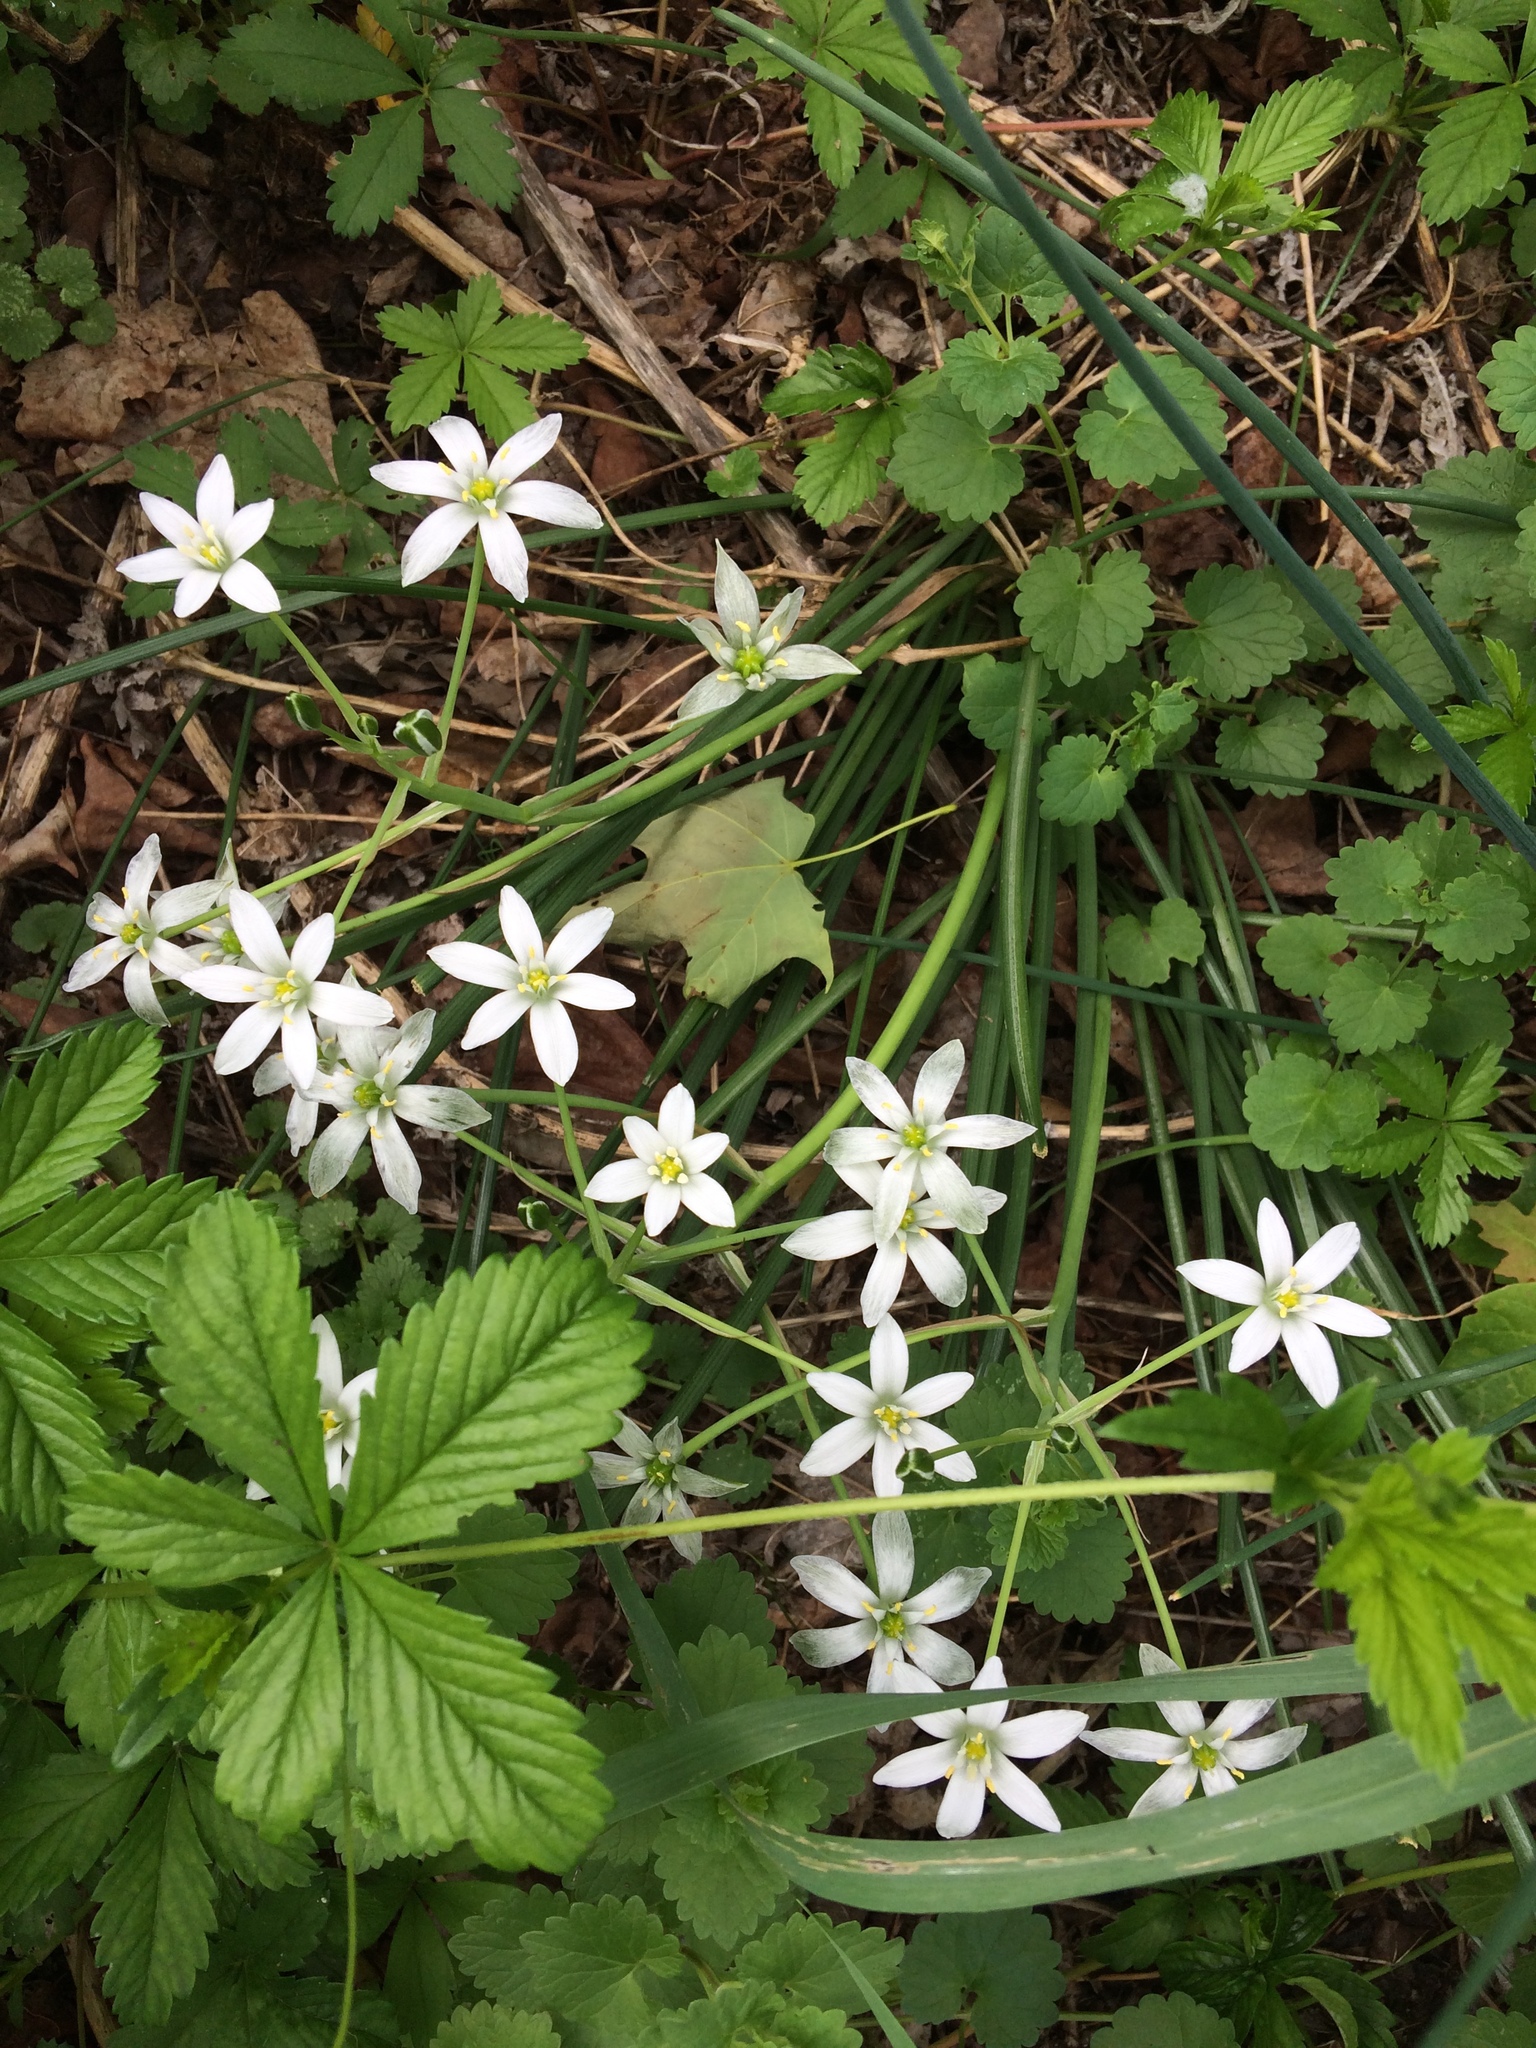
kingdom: Plantae
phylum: Tracheophyta
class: Liliopsida
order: Asparagales
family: Asparagaceae
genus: Ornithogalum
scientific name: Ornithogalum umbellatum
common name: Garden star-of-bethlehem
